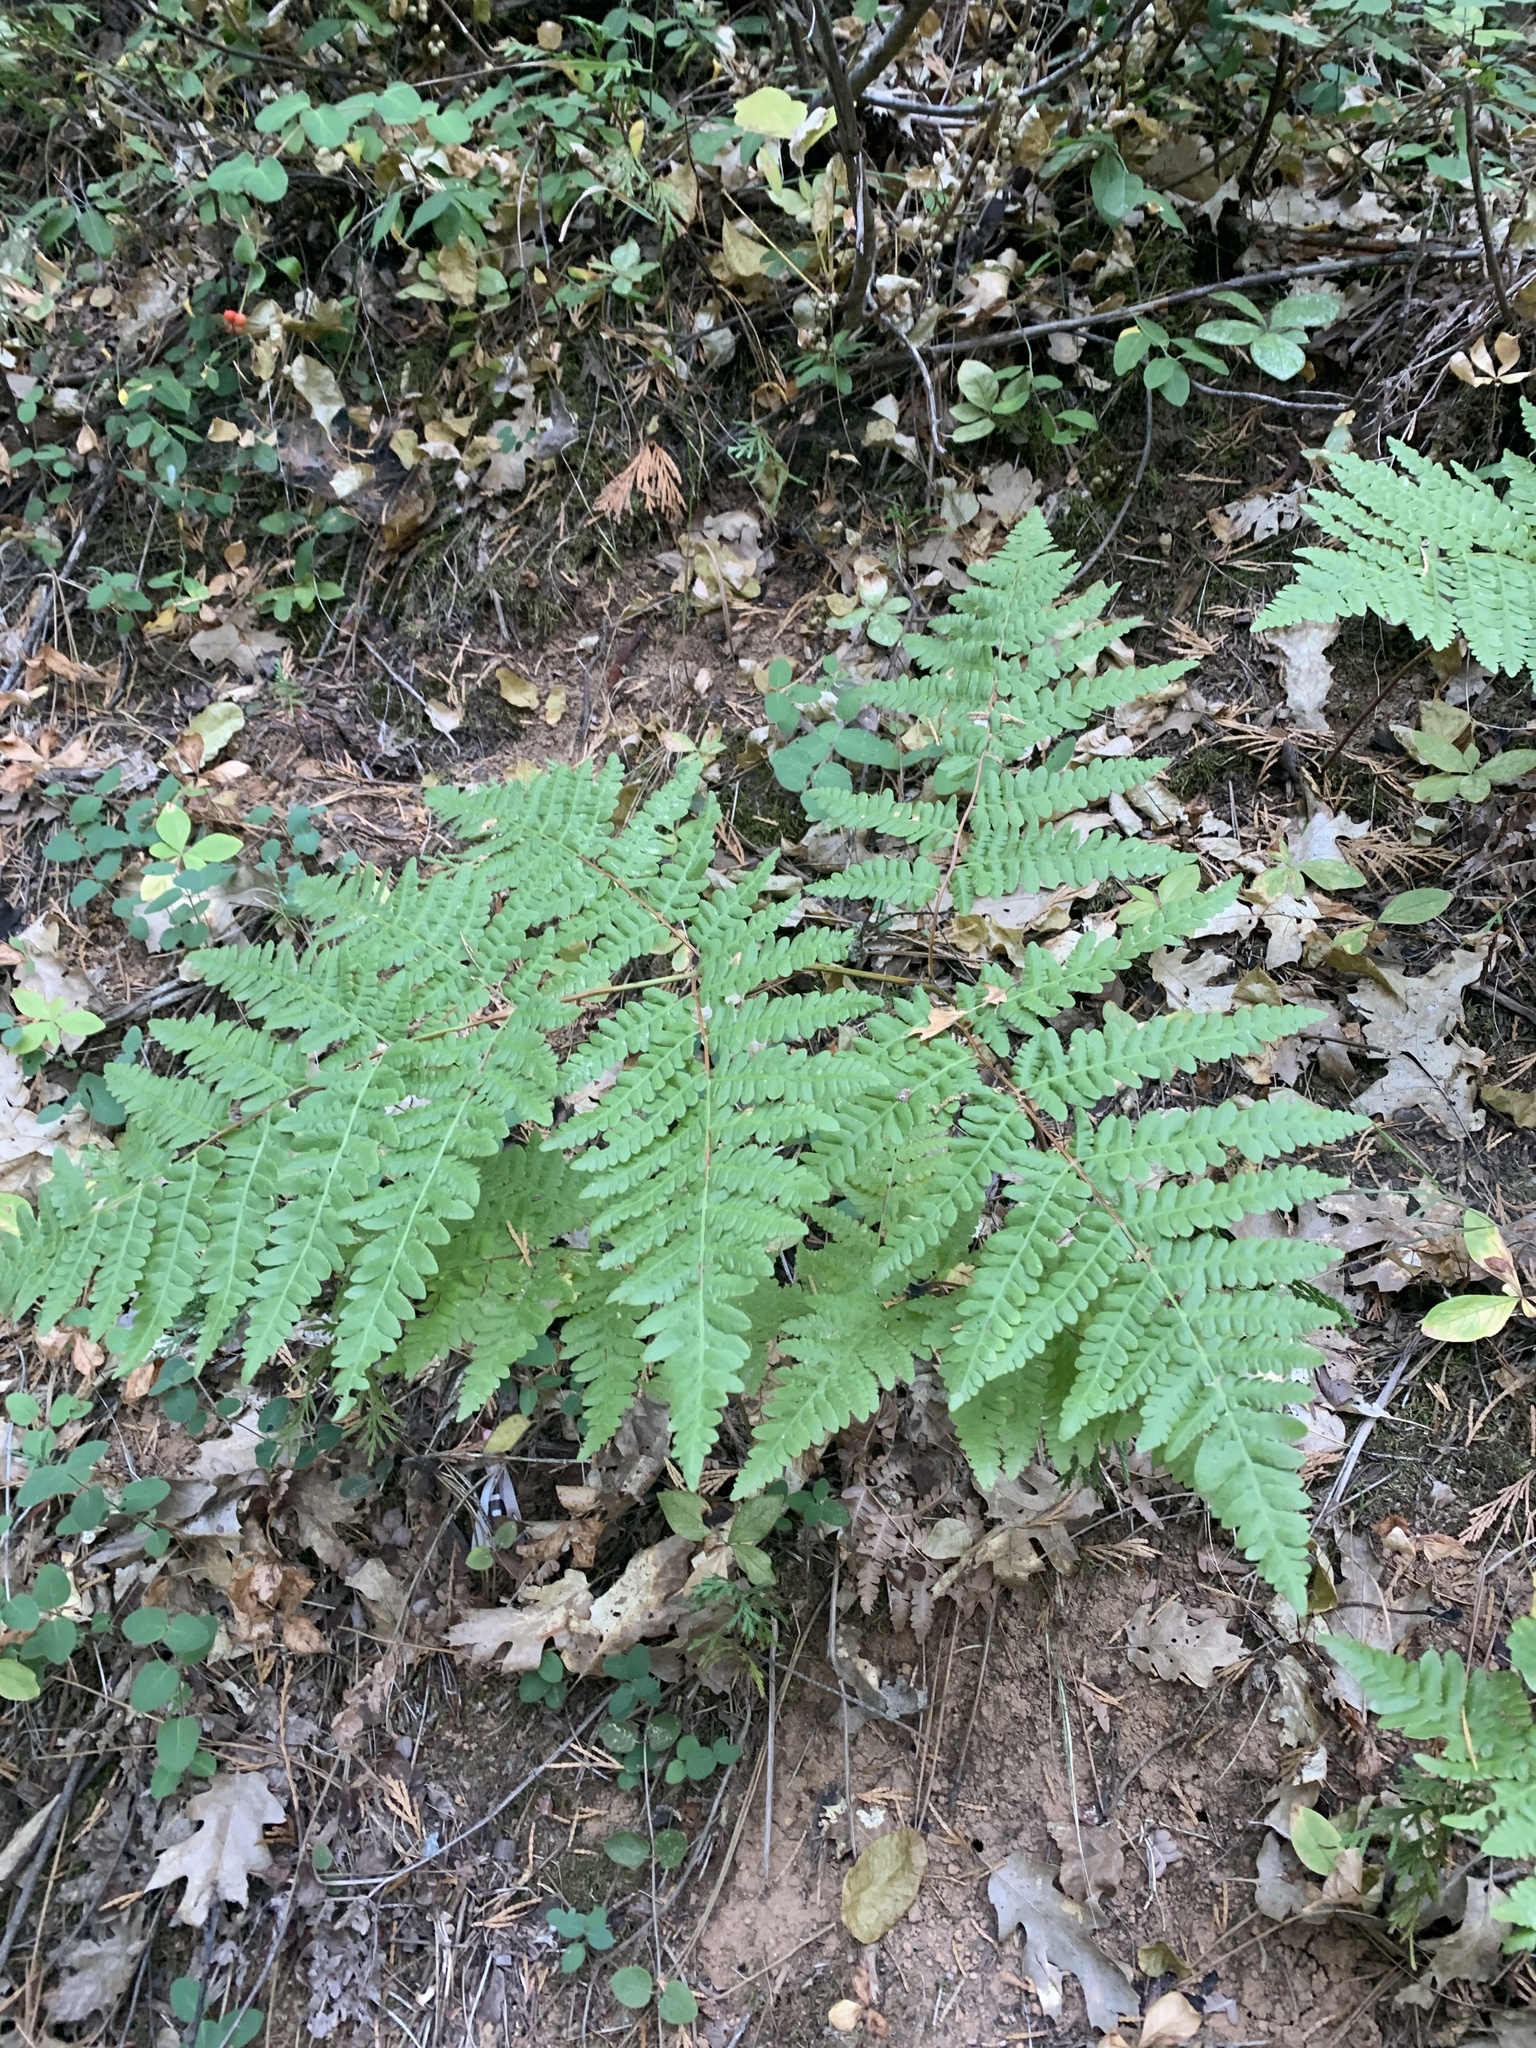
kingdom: Plantae
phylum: Tracheophyta
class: Polypodiopsida
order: Polypodiales
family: Dennstaedtiaceae
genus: Pteridium
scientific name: Pteridium aquilinum
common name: Bracken
